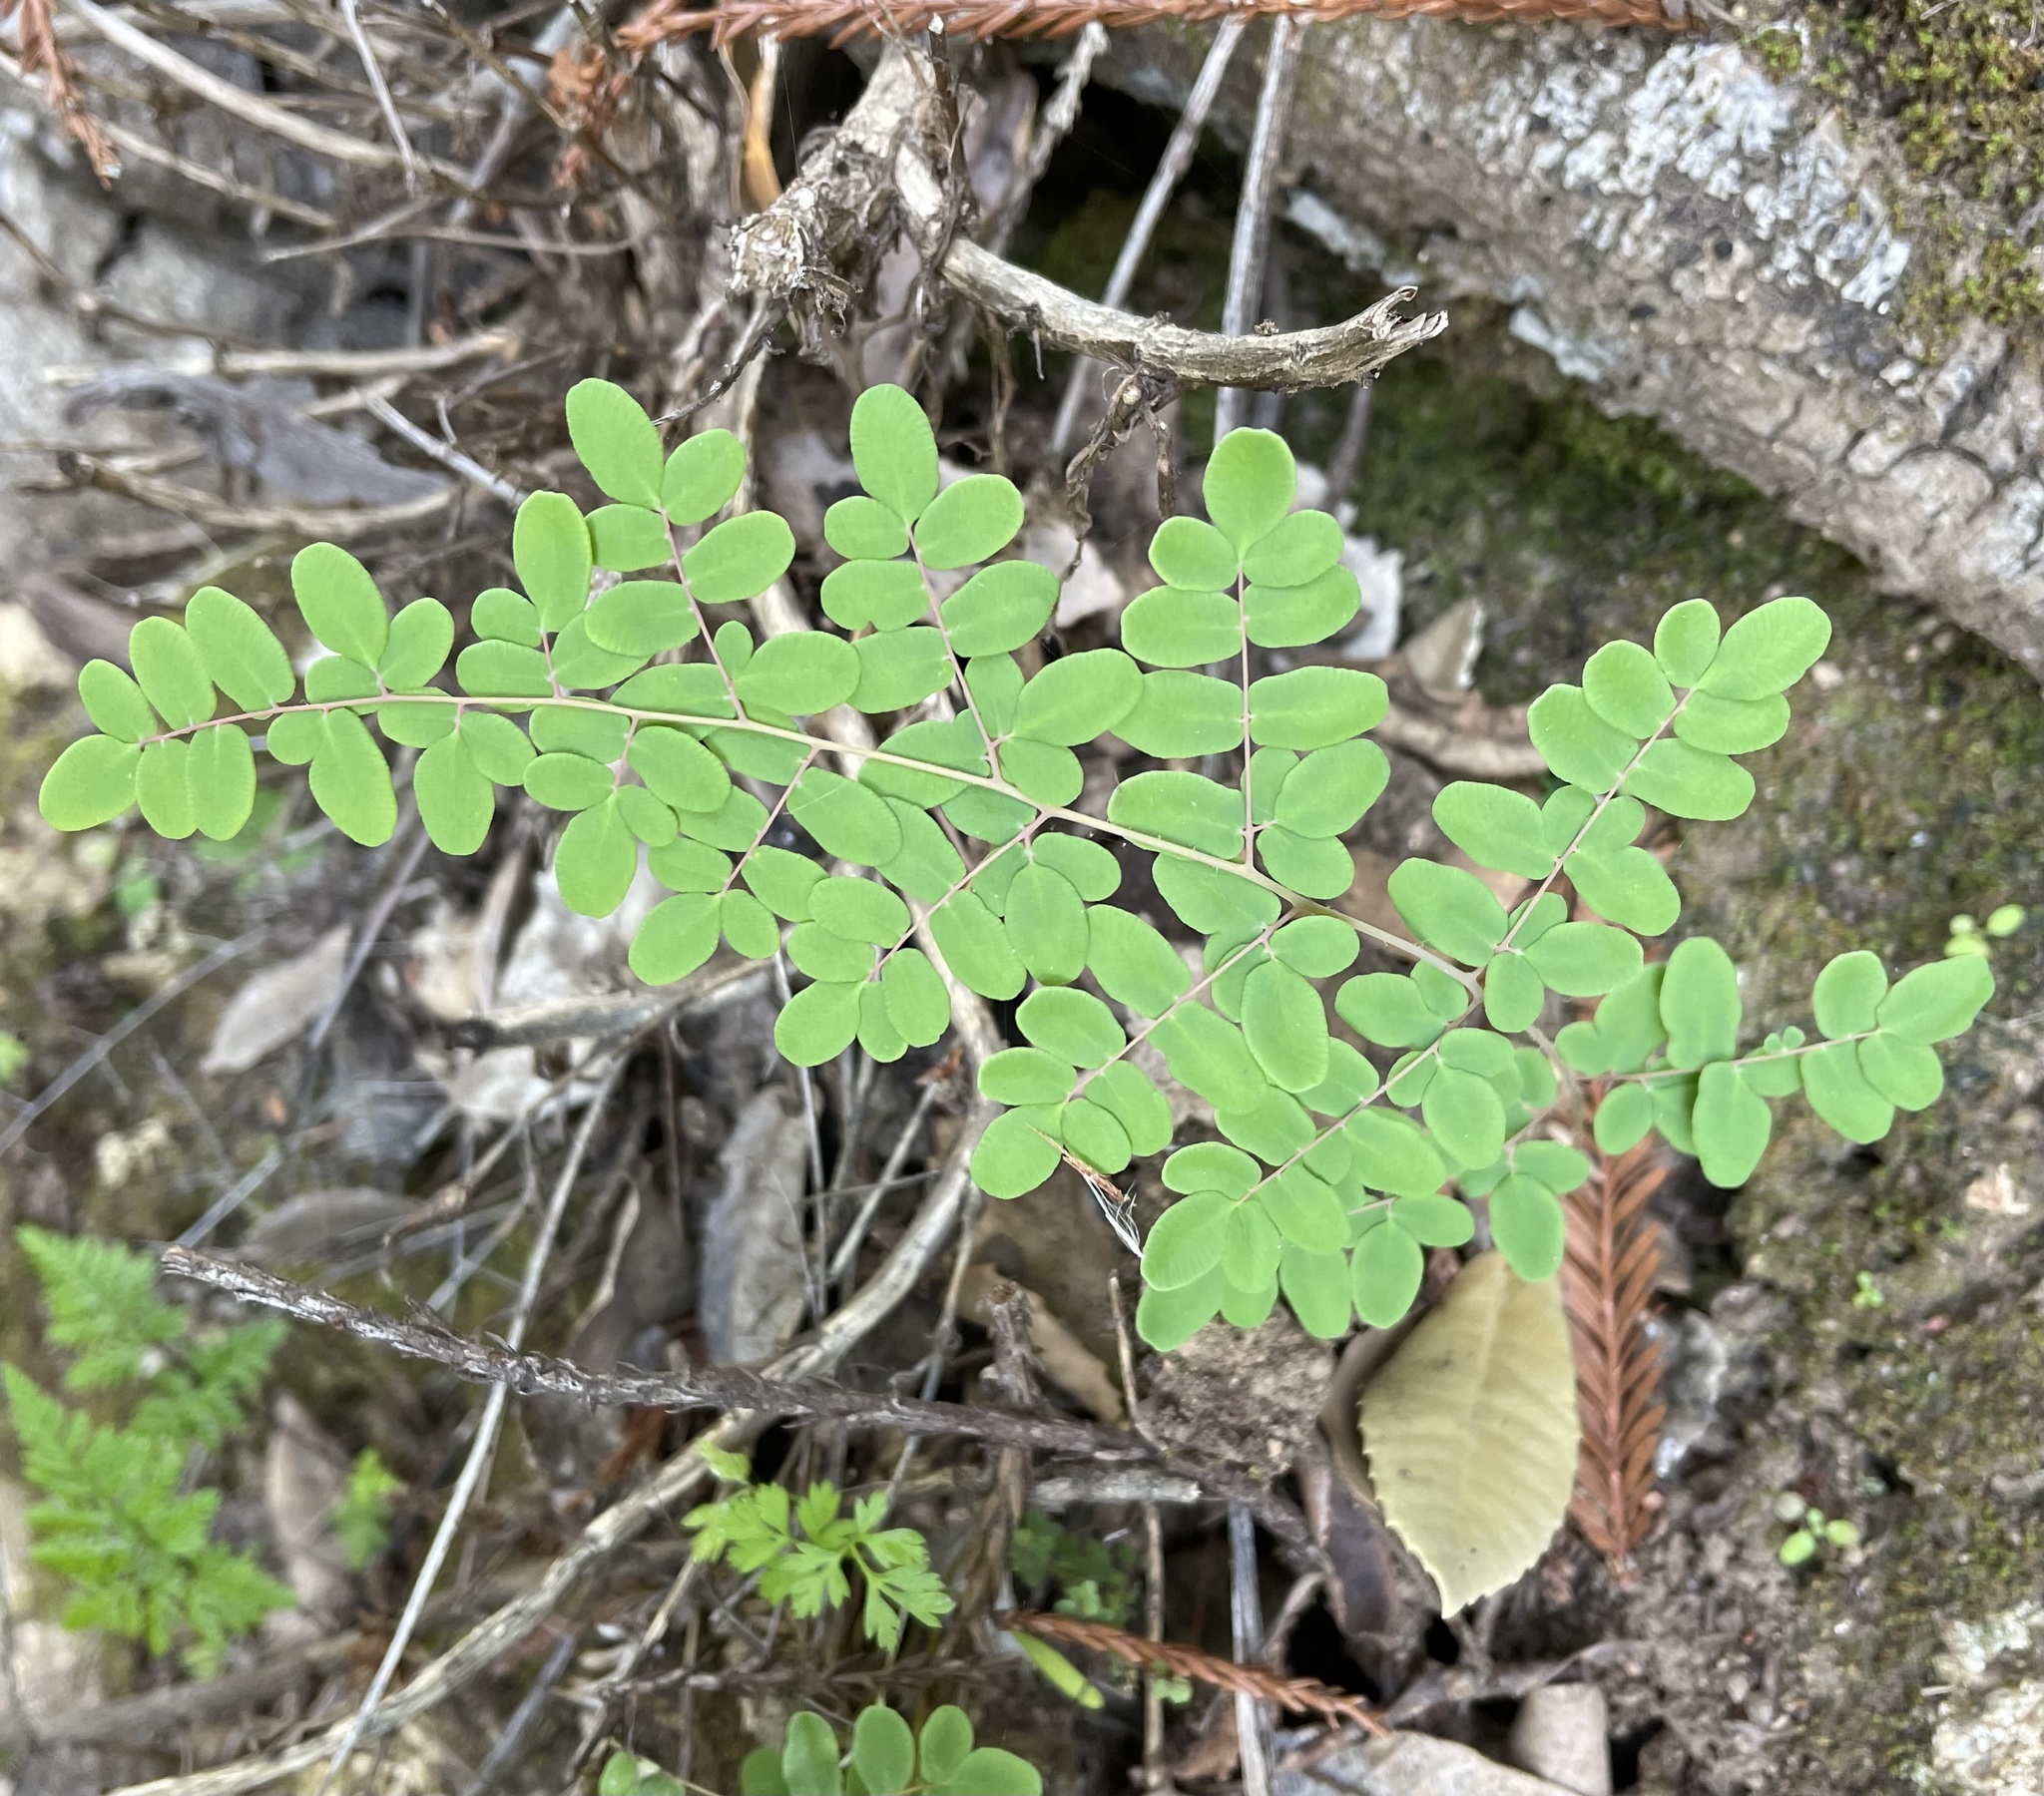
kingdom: Plantae
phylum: Tracheophyta
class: Polypodiopsida
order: Polypodiales
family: Pteridaceae
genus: Pellaea
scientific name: Pellaea andromedifolia
